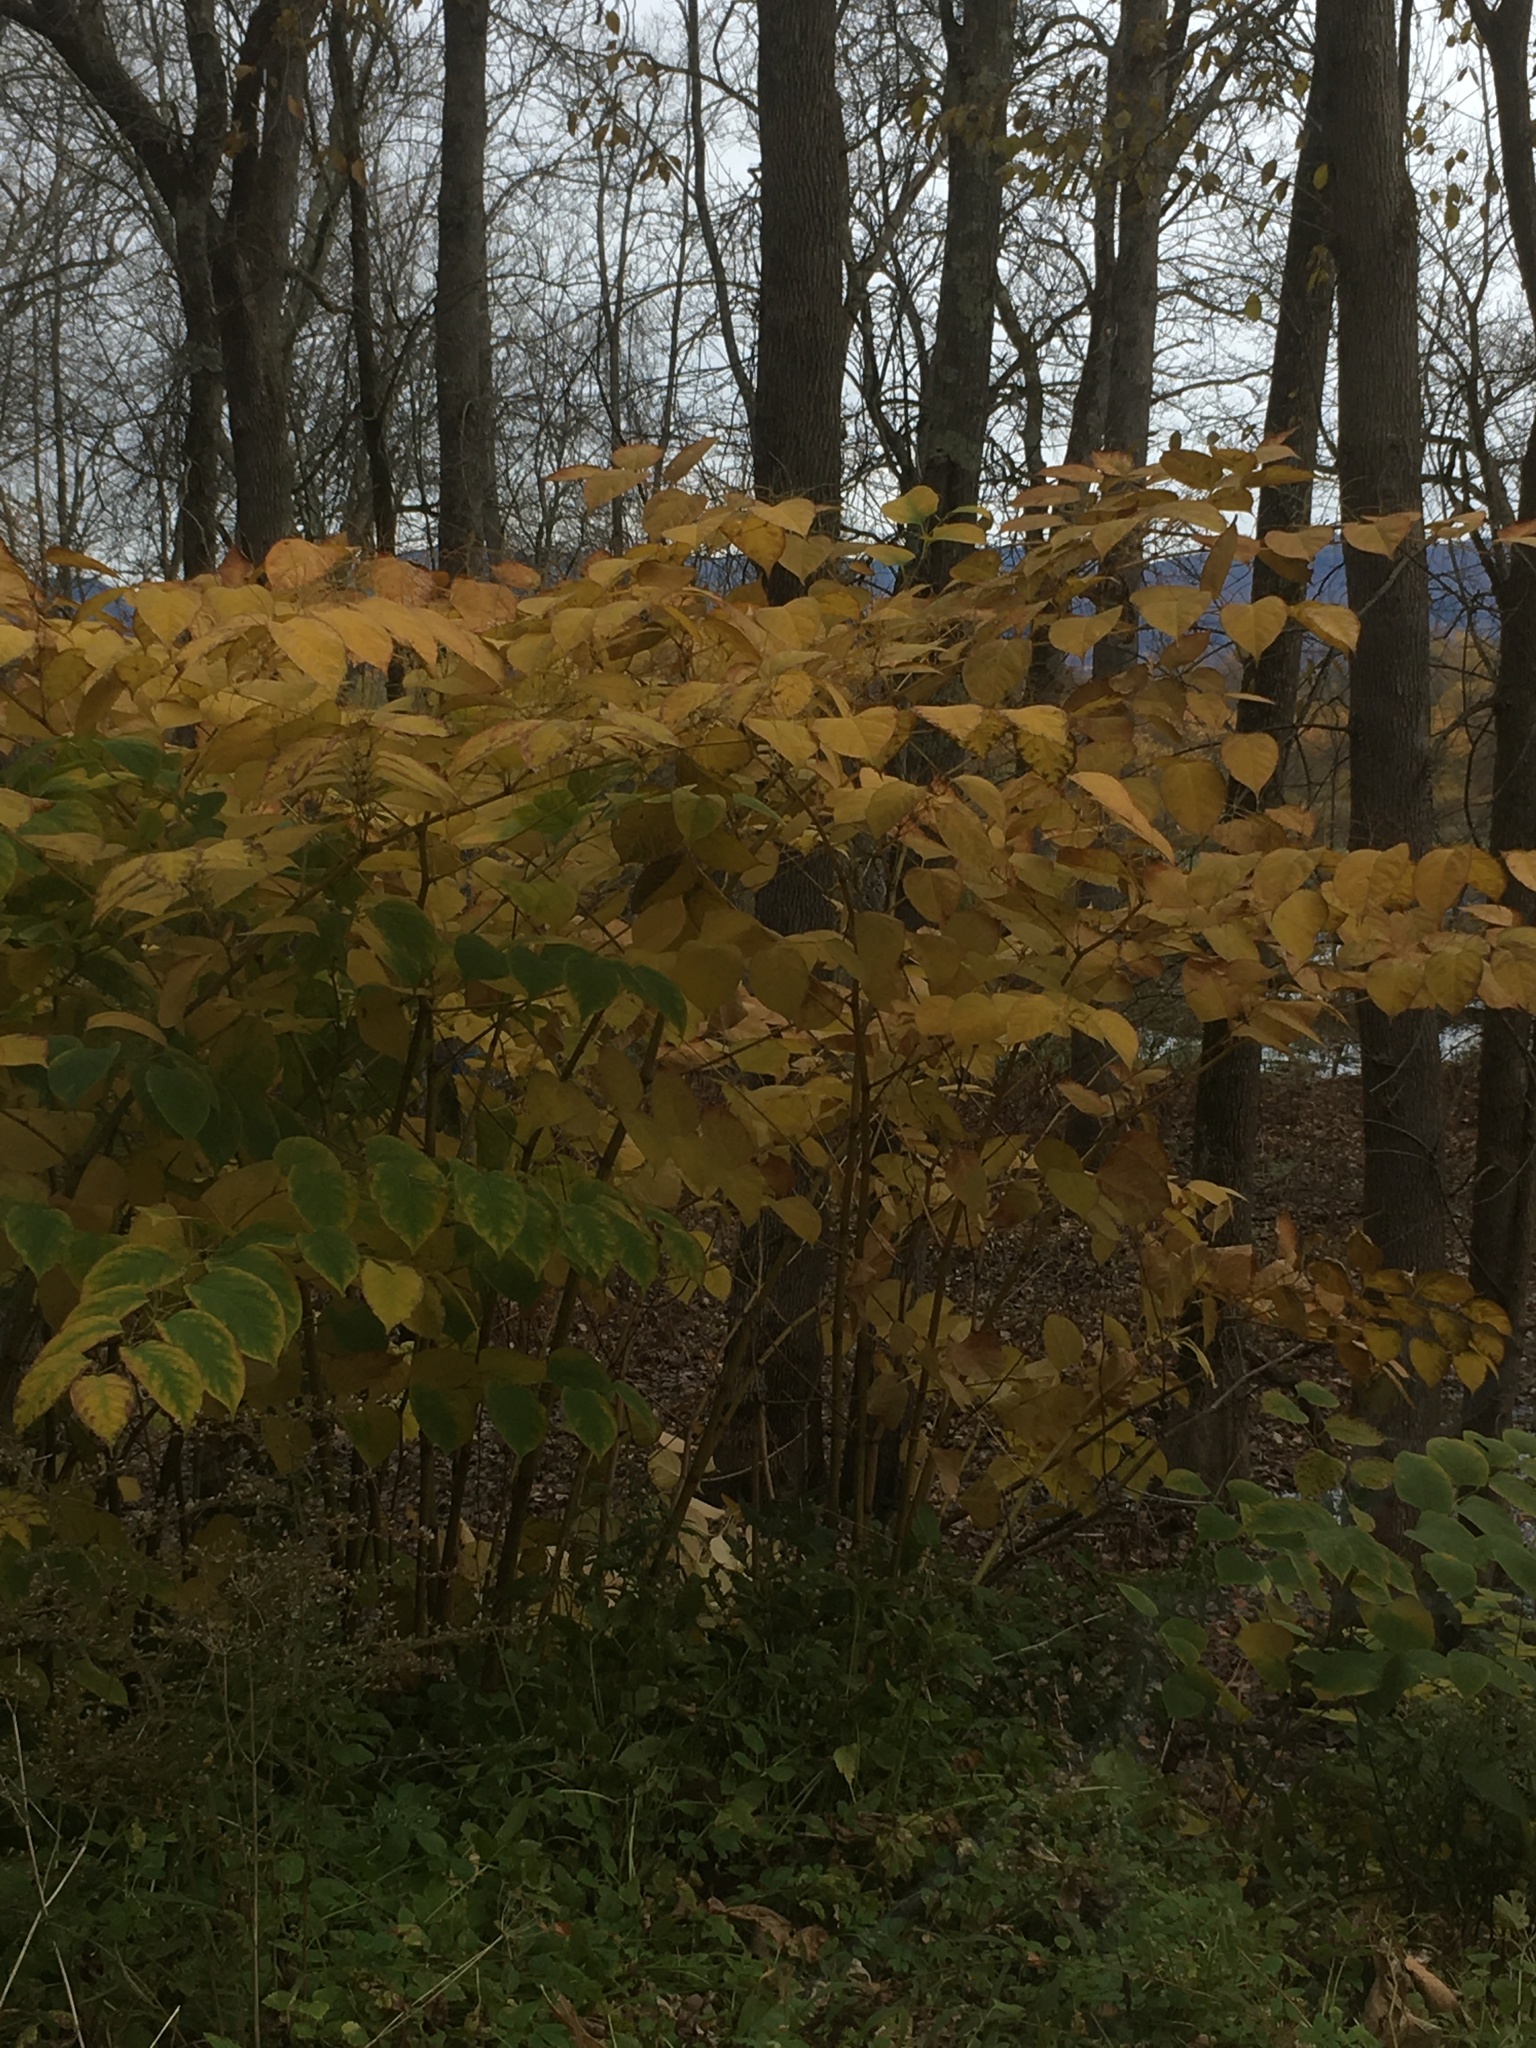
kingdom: Plantae
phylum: Tracheophyta
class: Magnoliopsida
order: Caryophyllales
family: Polygonaceae
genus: Reynoutria
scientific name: Reynoutria japonica
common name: Japanese knotweed
